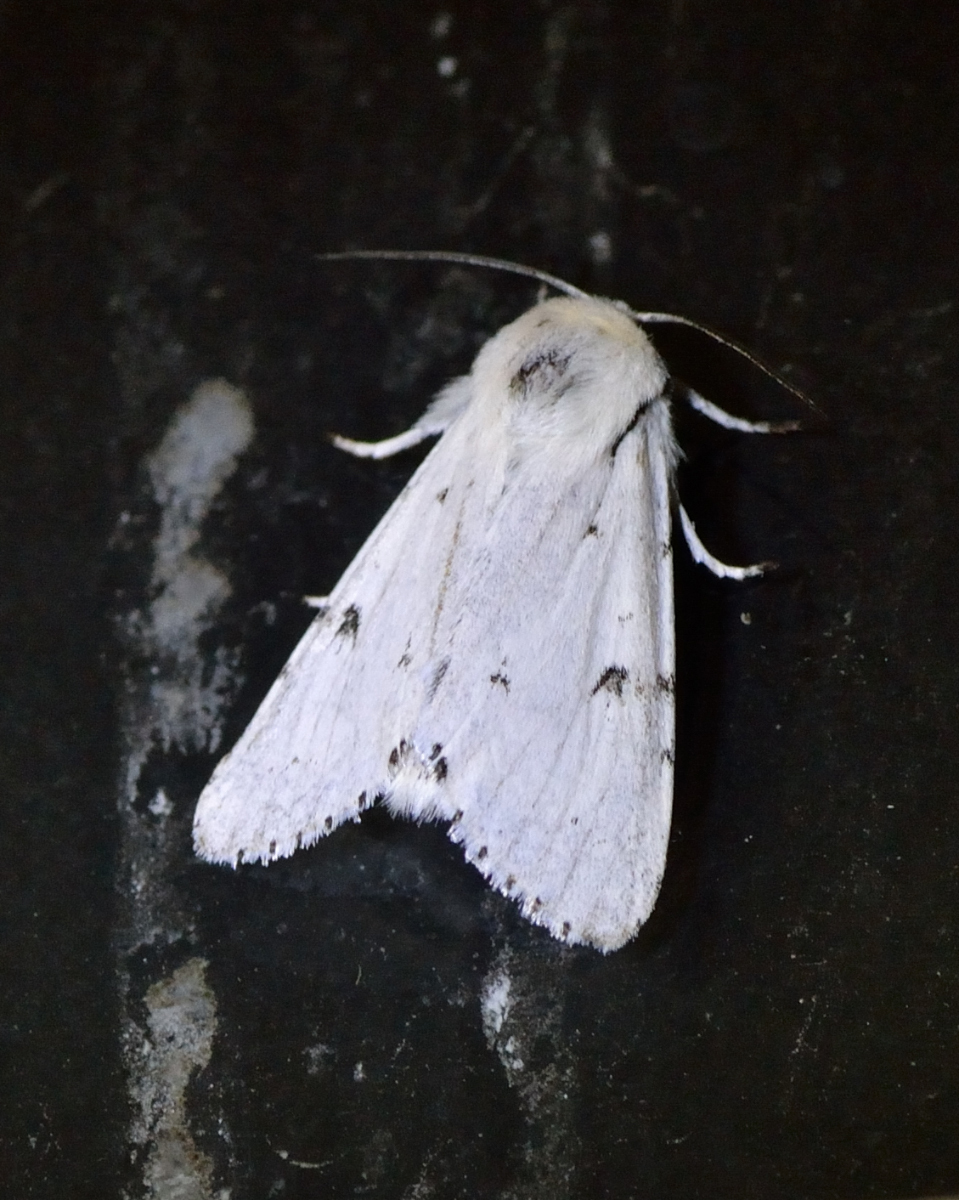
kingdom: Animalia
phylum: Arthropoda
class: Insecta
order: Lepidoptera
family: Noctuidae
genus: Acronicta
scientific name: Acronicta leporina
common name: Miller
